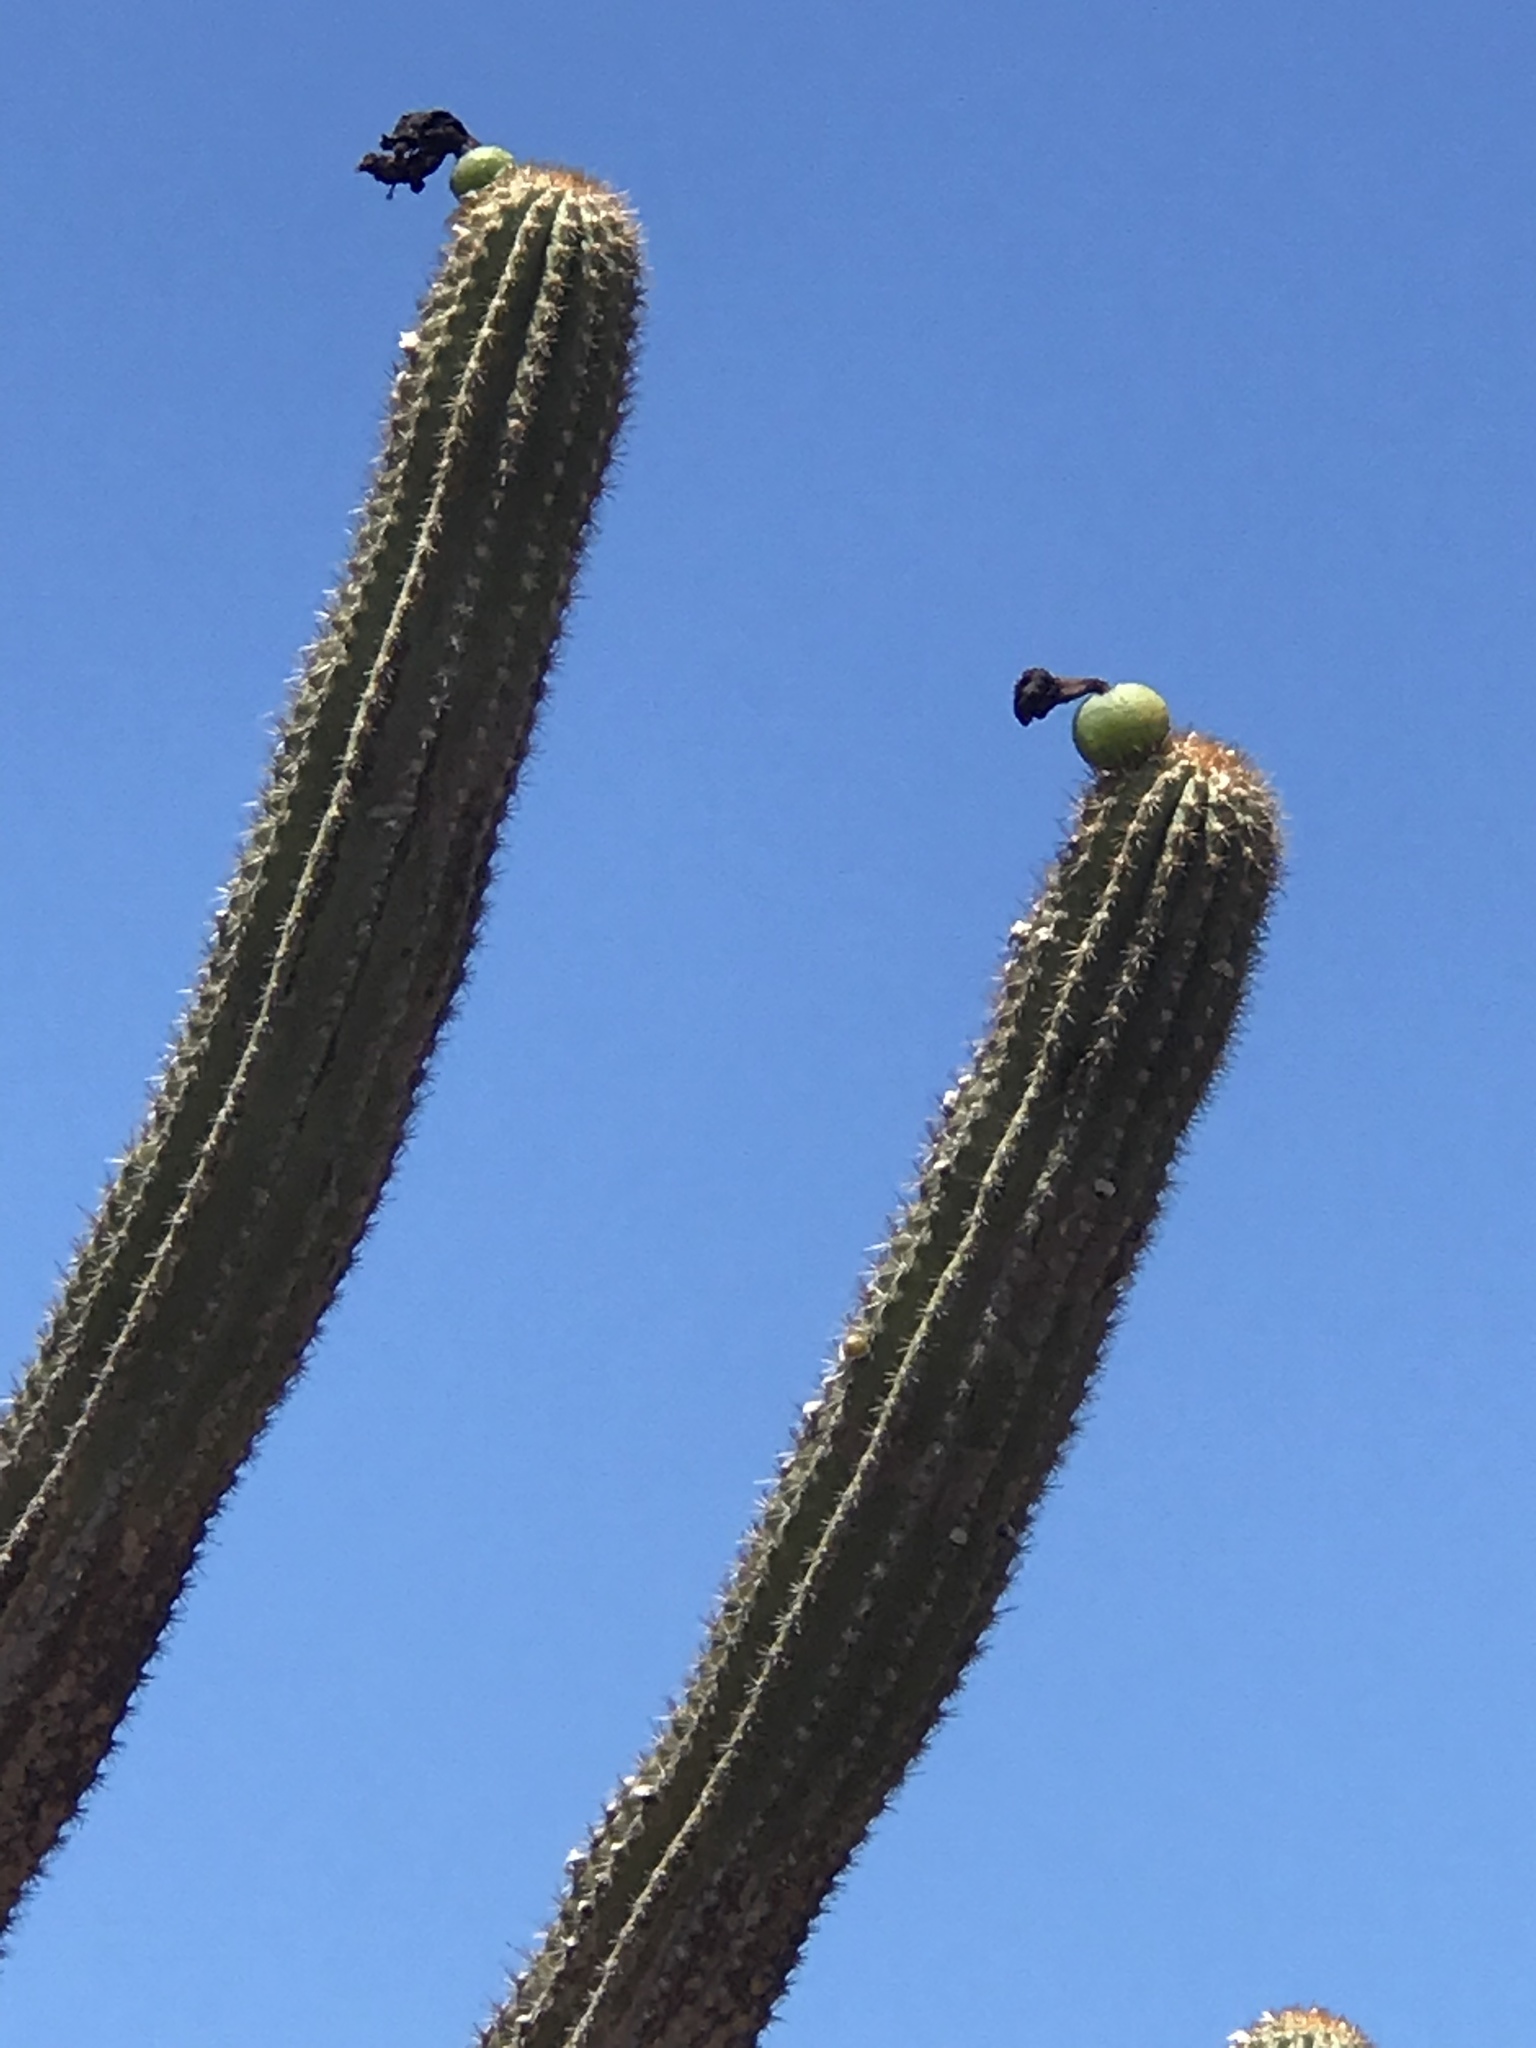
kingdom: Plantae
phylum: Tracheophyta
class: Magnoliopsida
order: Caryophyllales
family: Cactaceae
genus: Pilosocereus
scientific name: Pilosocereus catingicola
